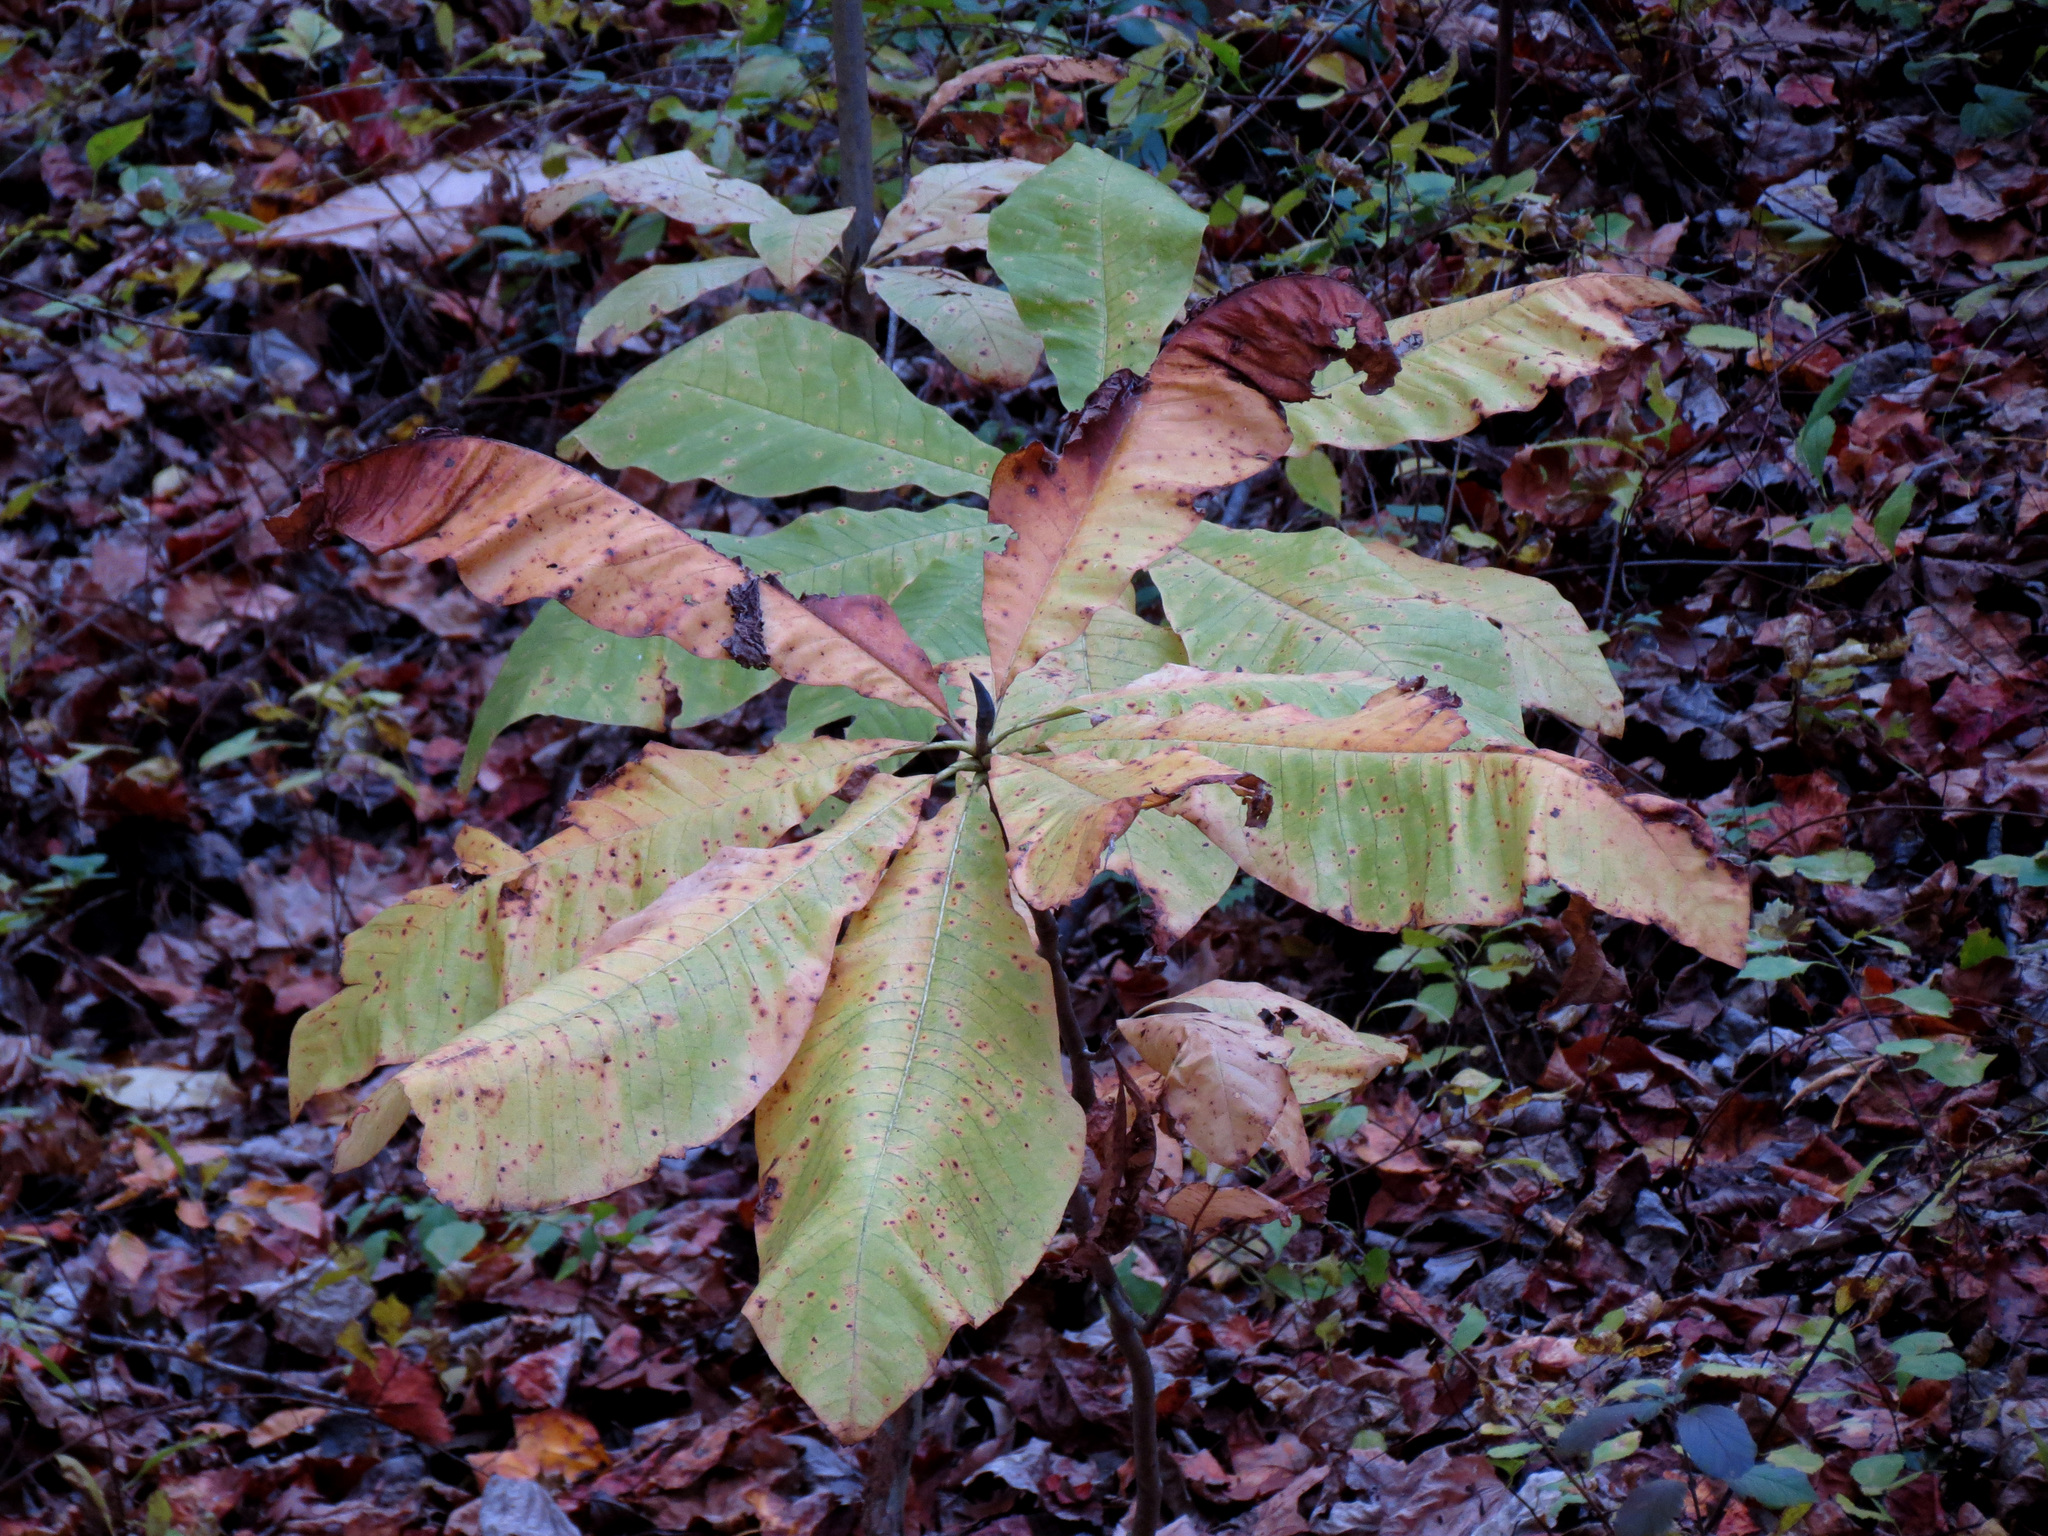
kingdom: Plantae
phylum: Tracheophyta
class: Magnoliopsida
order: Magnoliales
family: Magnoliaceae
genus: Magnolia
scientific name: Magnolia tripetala
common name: Umbrella magnolia
